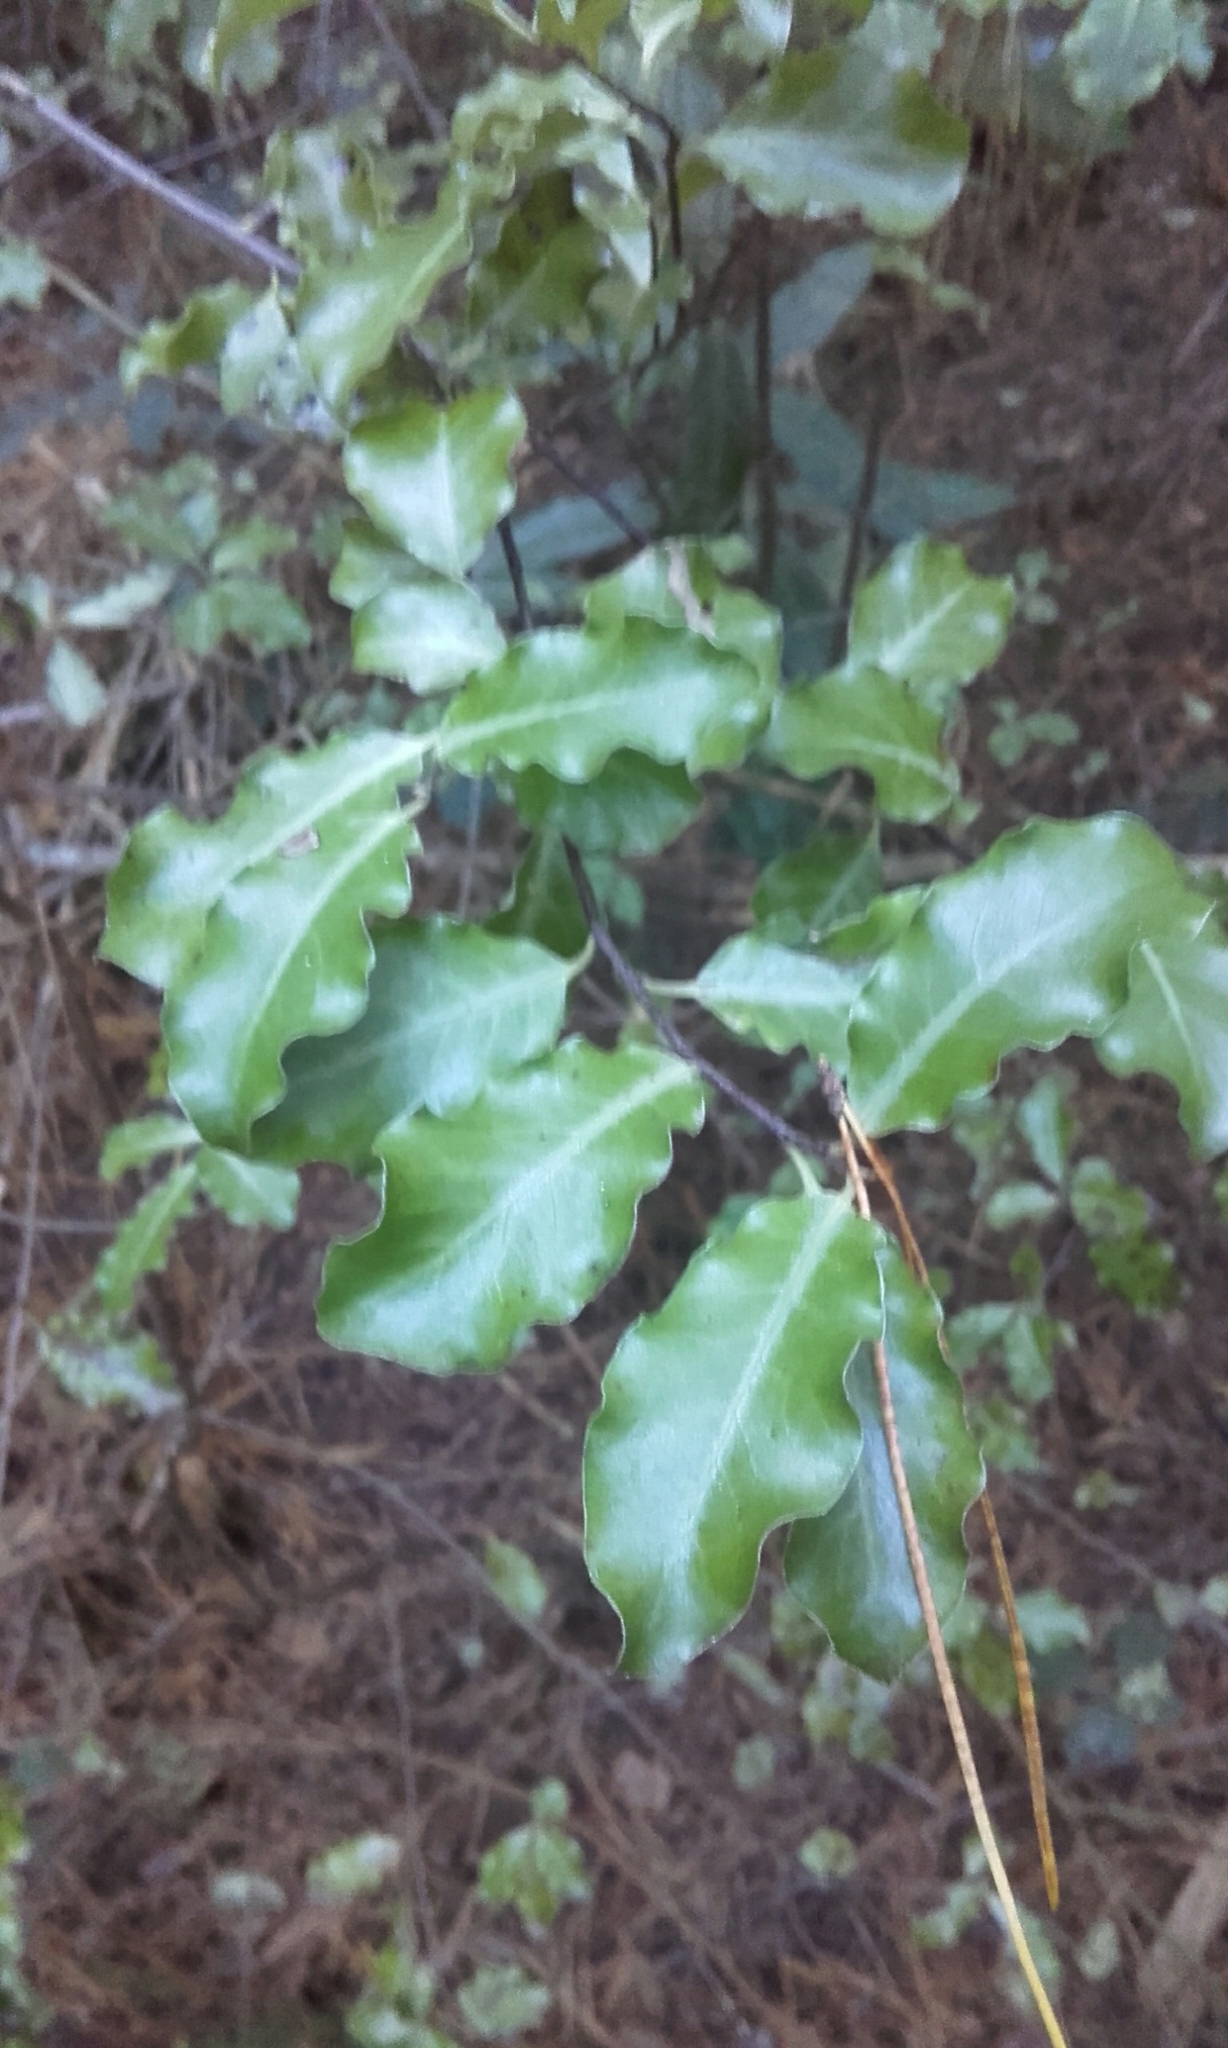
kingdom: Plantae
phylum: Tracheophyta
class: Magnoliopsida
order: Apiales
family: Pittosporaceae
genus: Pittosporum
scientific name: Pittosporum tenuifolium
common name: Kohuhu
